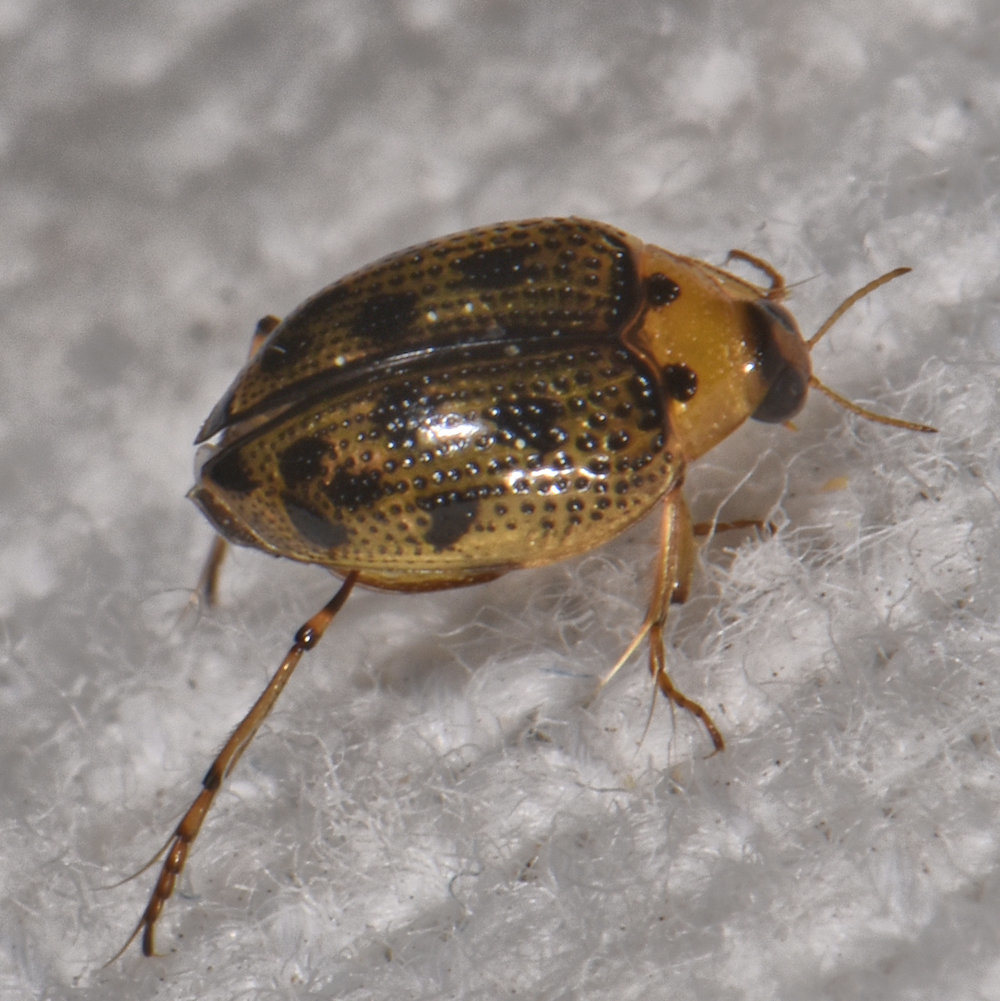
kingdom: Animalia
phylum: Arthropoda
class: Insecta
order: Coleoptera
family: Haliplidae
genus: Peltodytes
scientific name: Peltodytes edentulus
